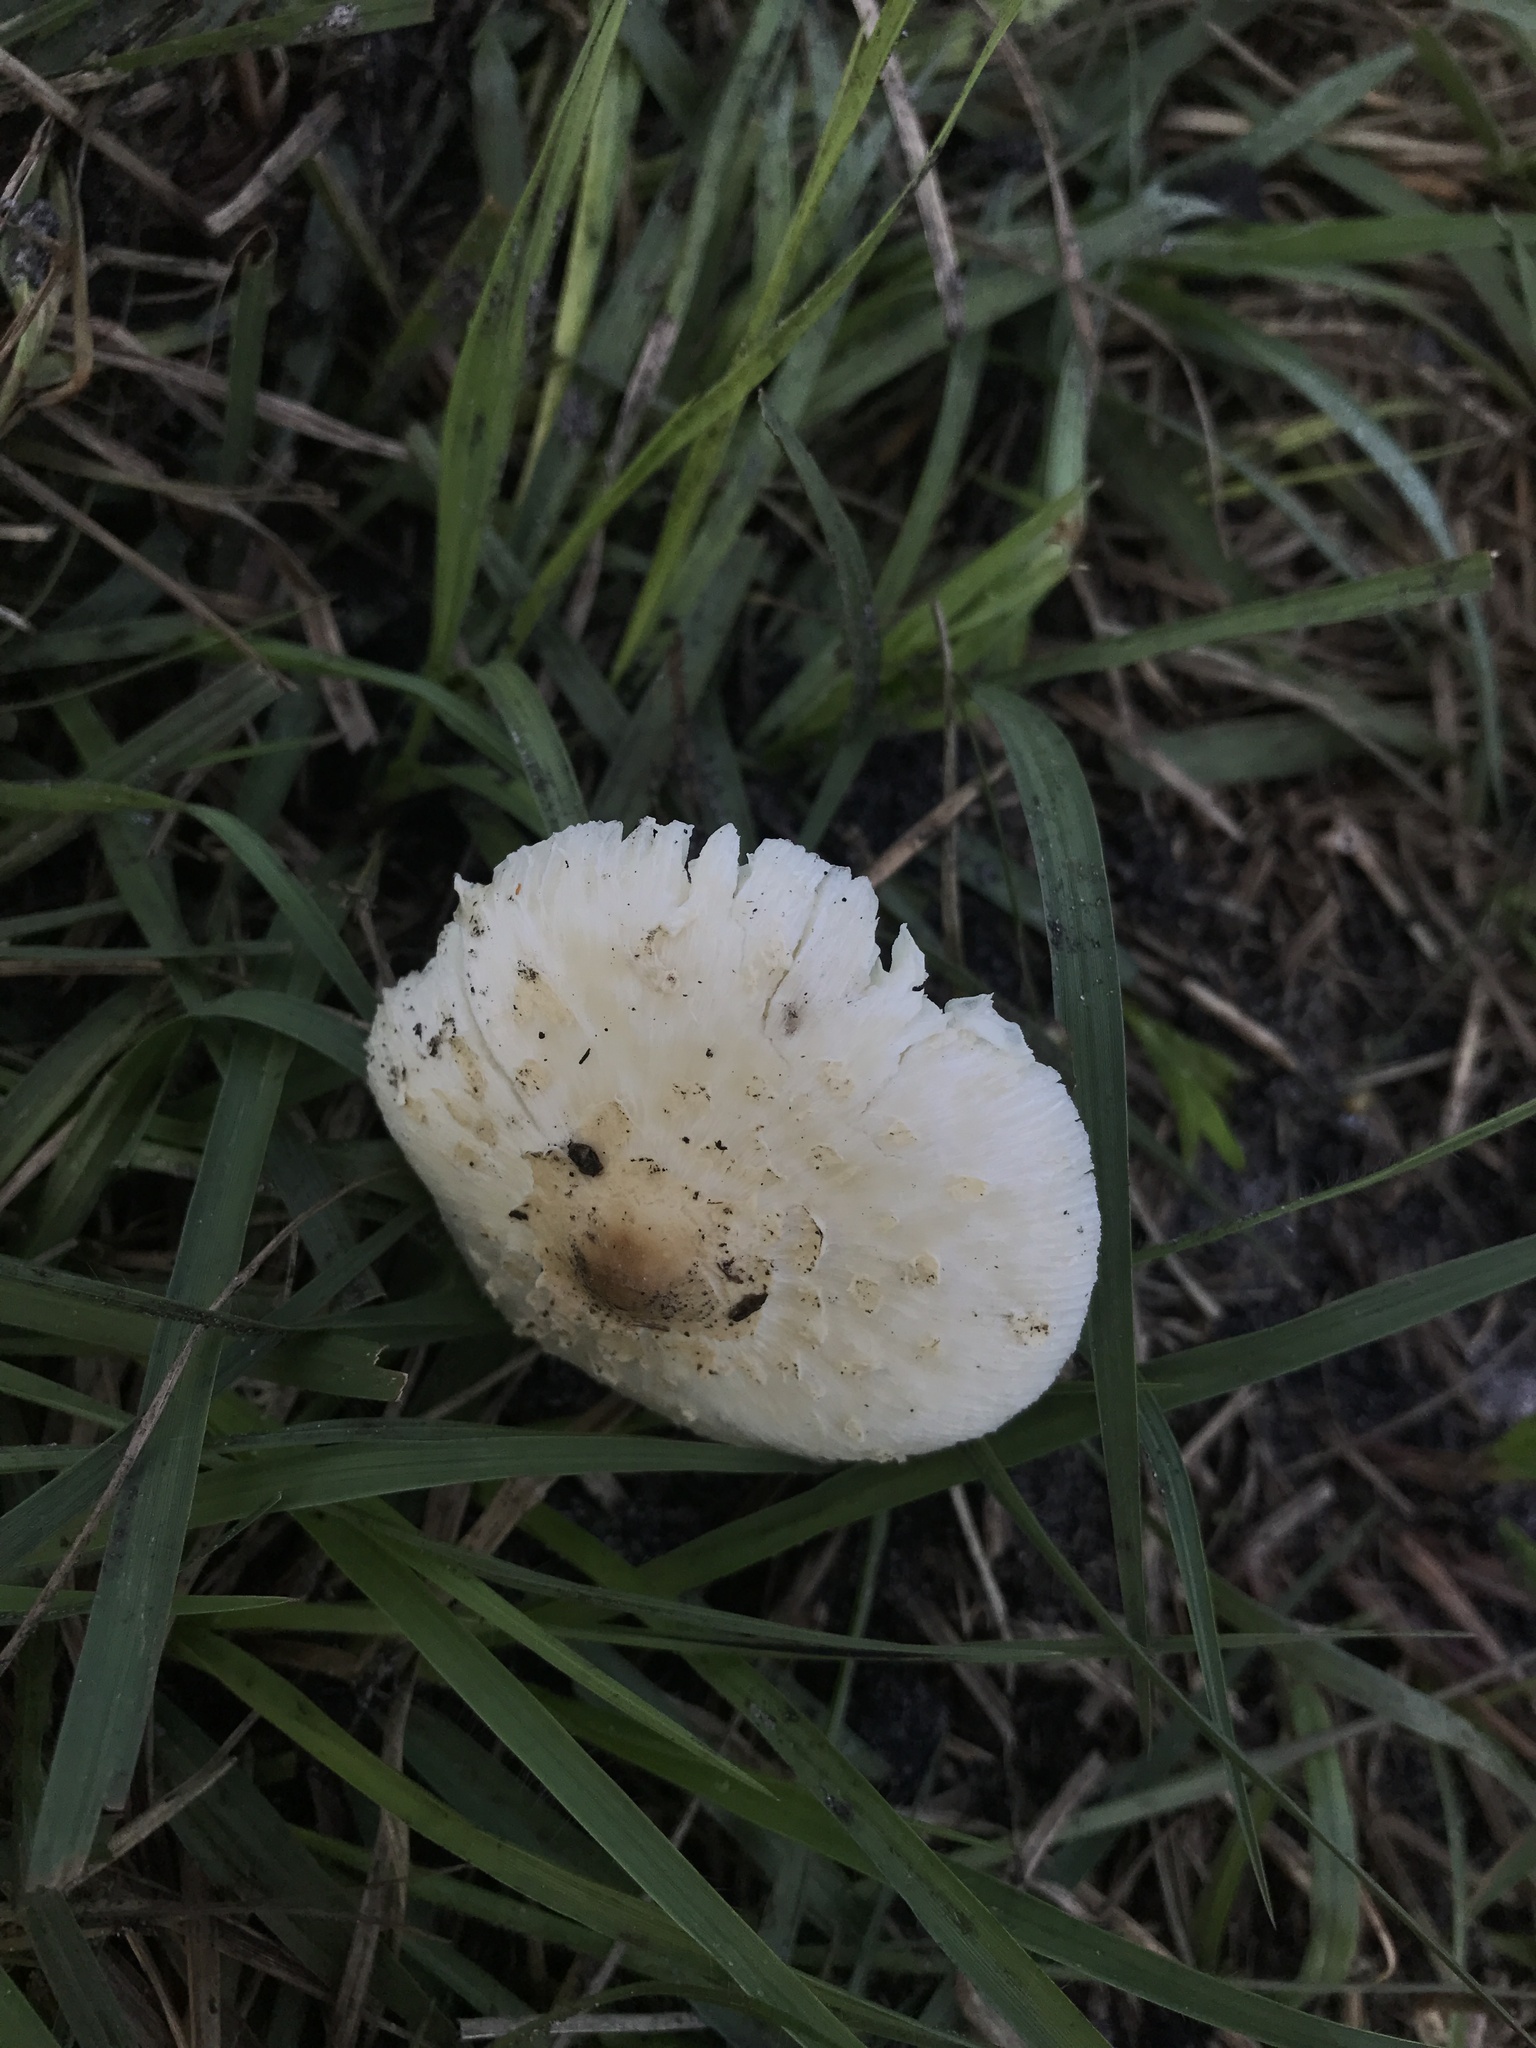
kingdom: Fungi
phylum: Basidiomycota
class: Agaricomycetes
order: Agaricales
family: Agaricaceae
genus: Chlorophyllum
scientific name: Chlorophyllum hortense
